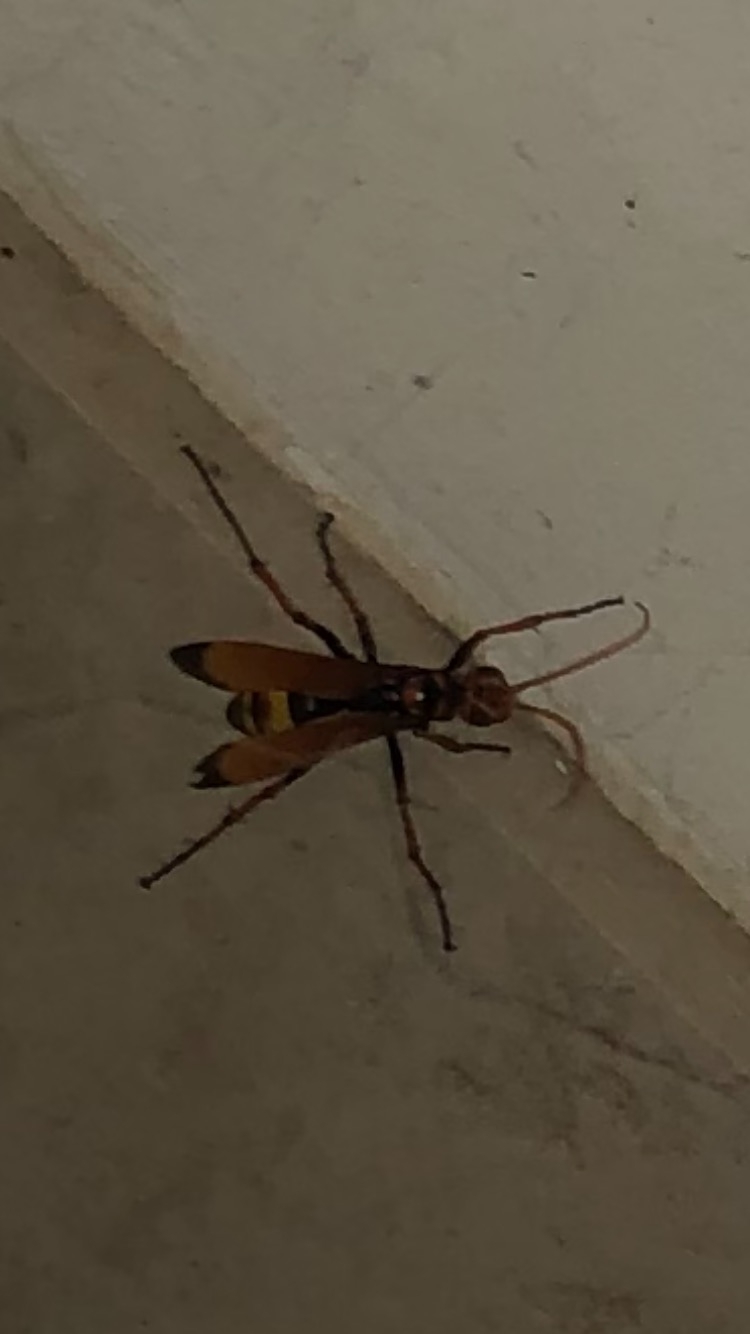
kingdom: Animalia
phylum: Arthropoda
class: Insecta
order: Hymenoptera
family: Pompilidae
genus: Cryptocheilus
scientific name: Cryptocheilus alternatus
